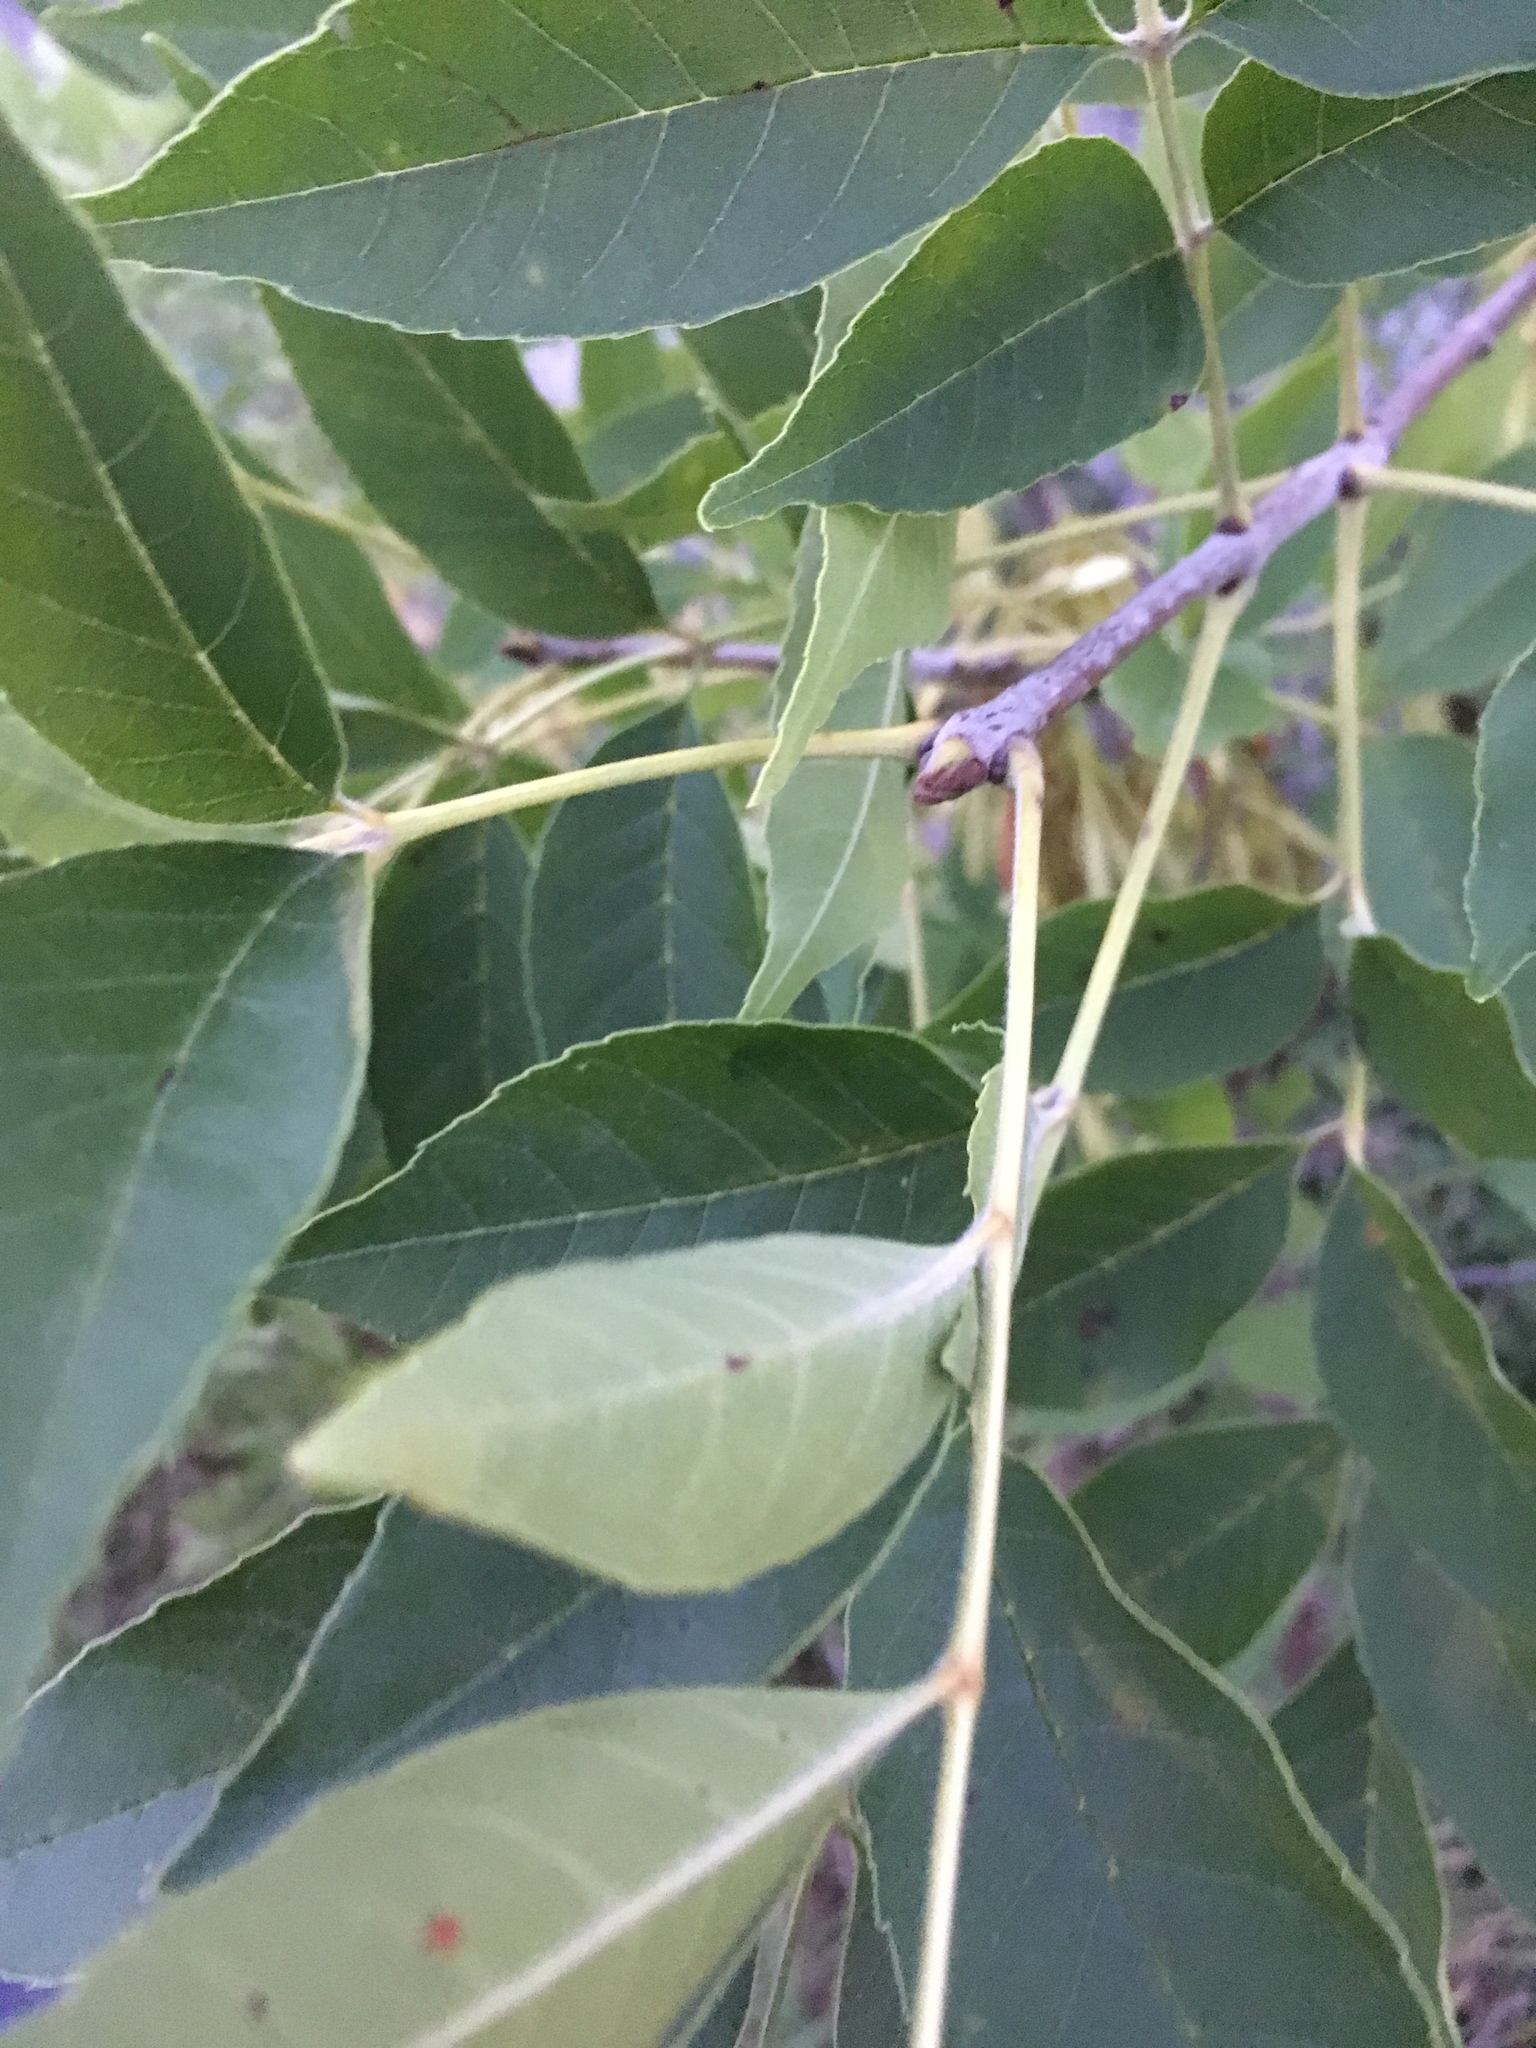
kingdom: Plantae
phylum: Tracheophyta
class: Magnoliopsida
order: Lamiales
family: Oleaceae
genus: Fraxinus
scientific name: Fraxinus americana
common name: White ash
